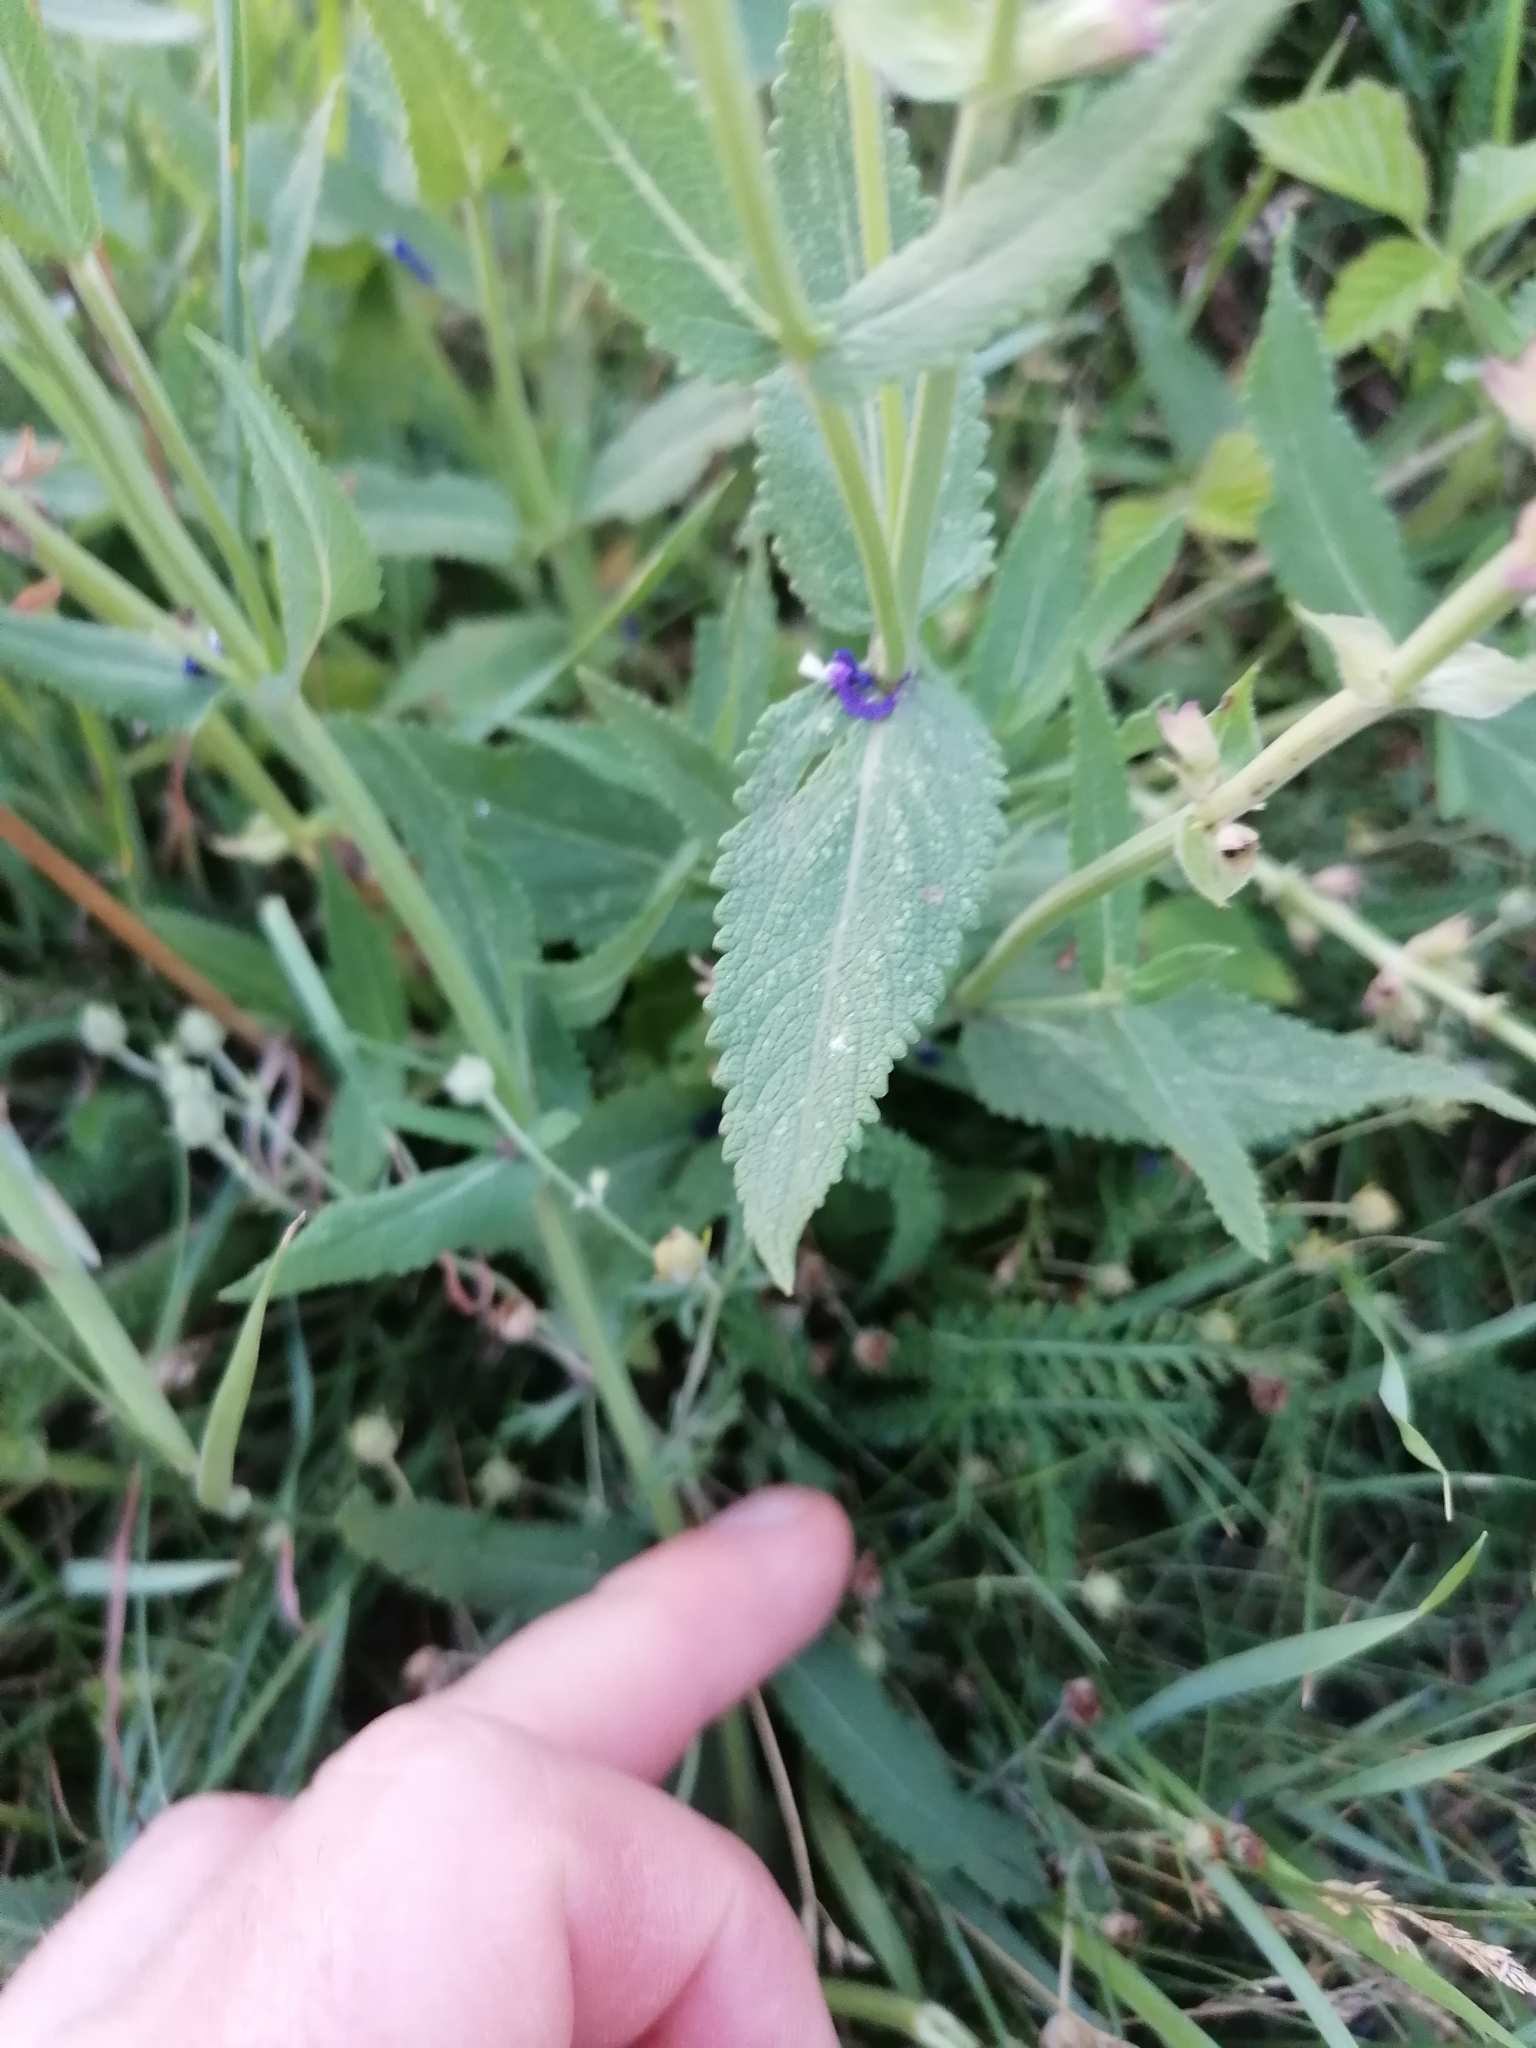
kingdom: Plantae
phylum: Tracheophyta
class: Magnoliopsida
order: Lamiales
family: Lamiaceae
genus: Salvia
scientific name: Salvia nemorosa
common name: Balkan clary
